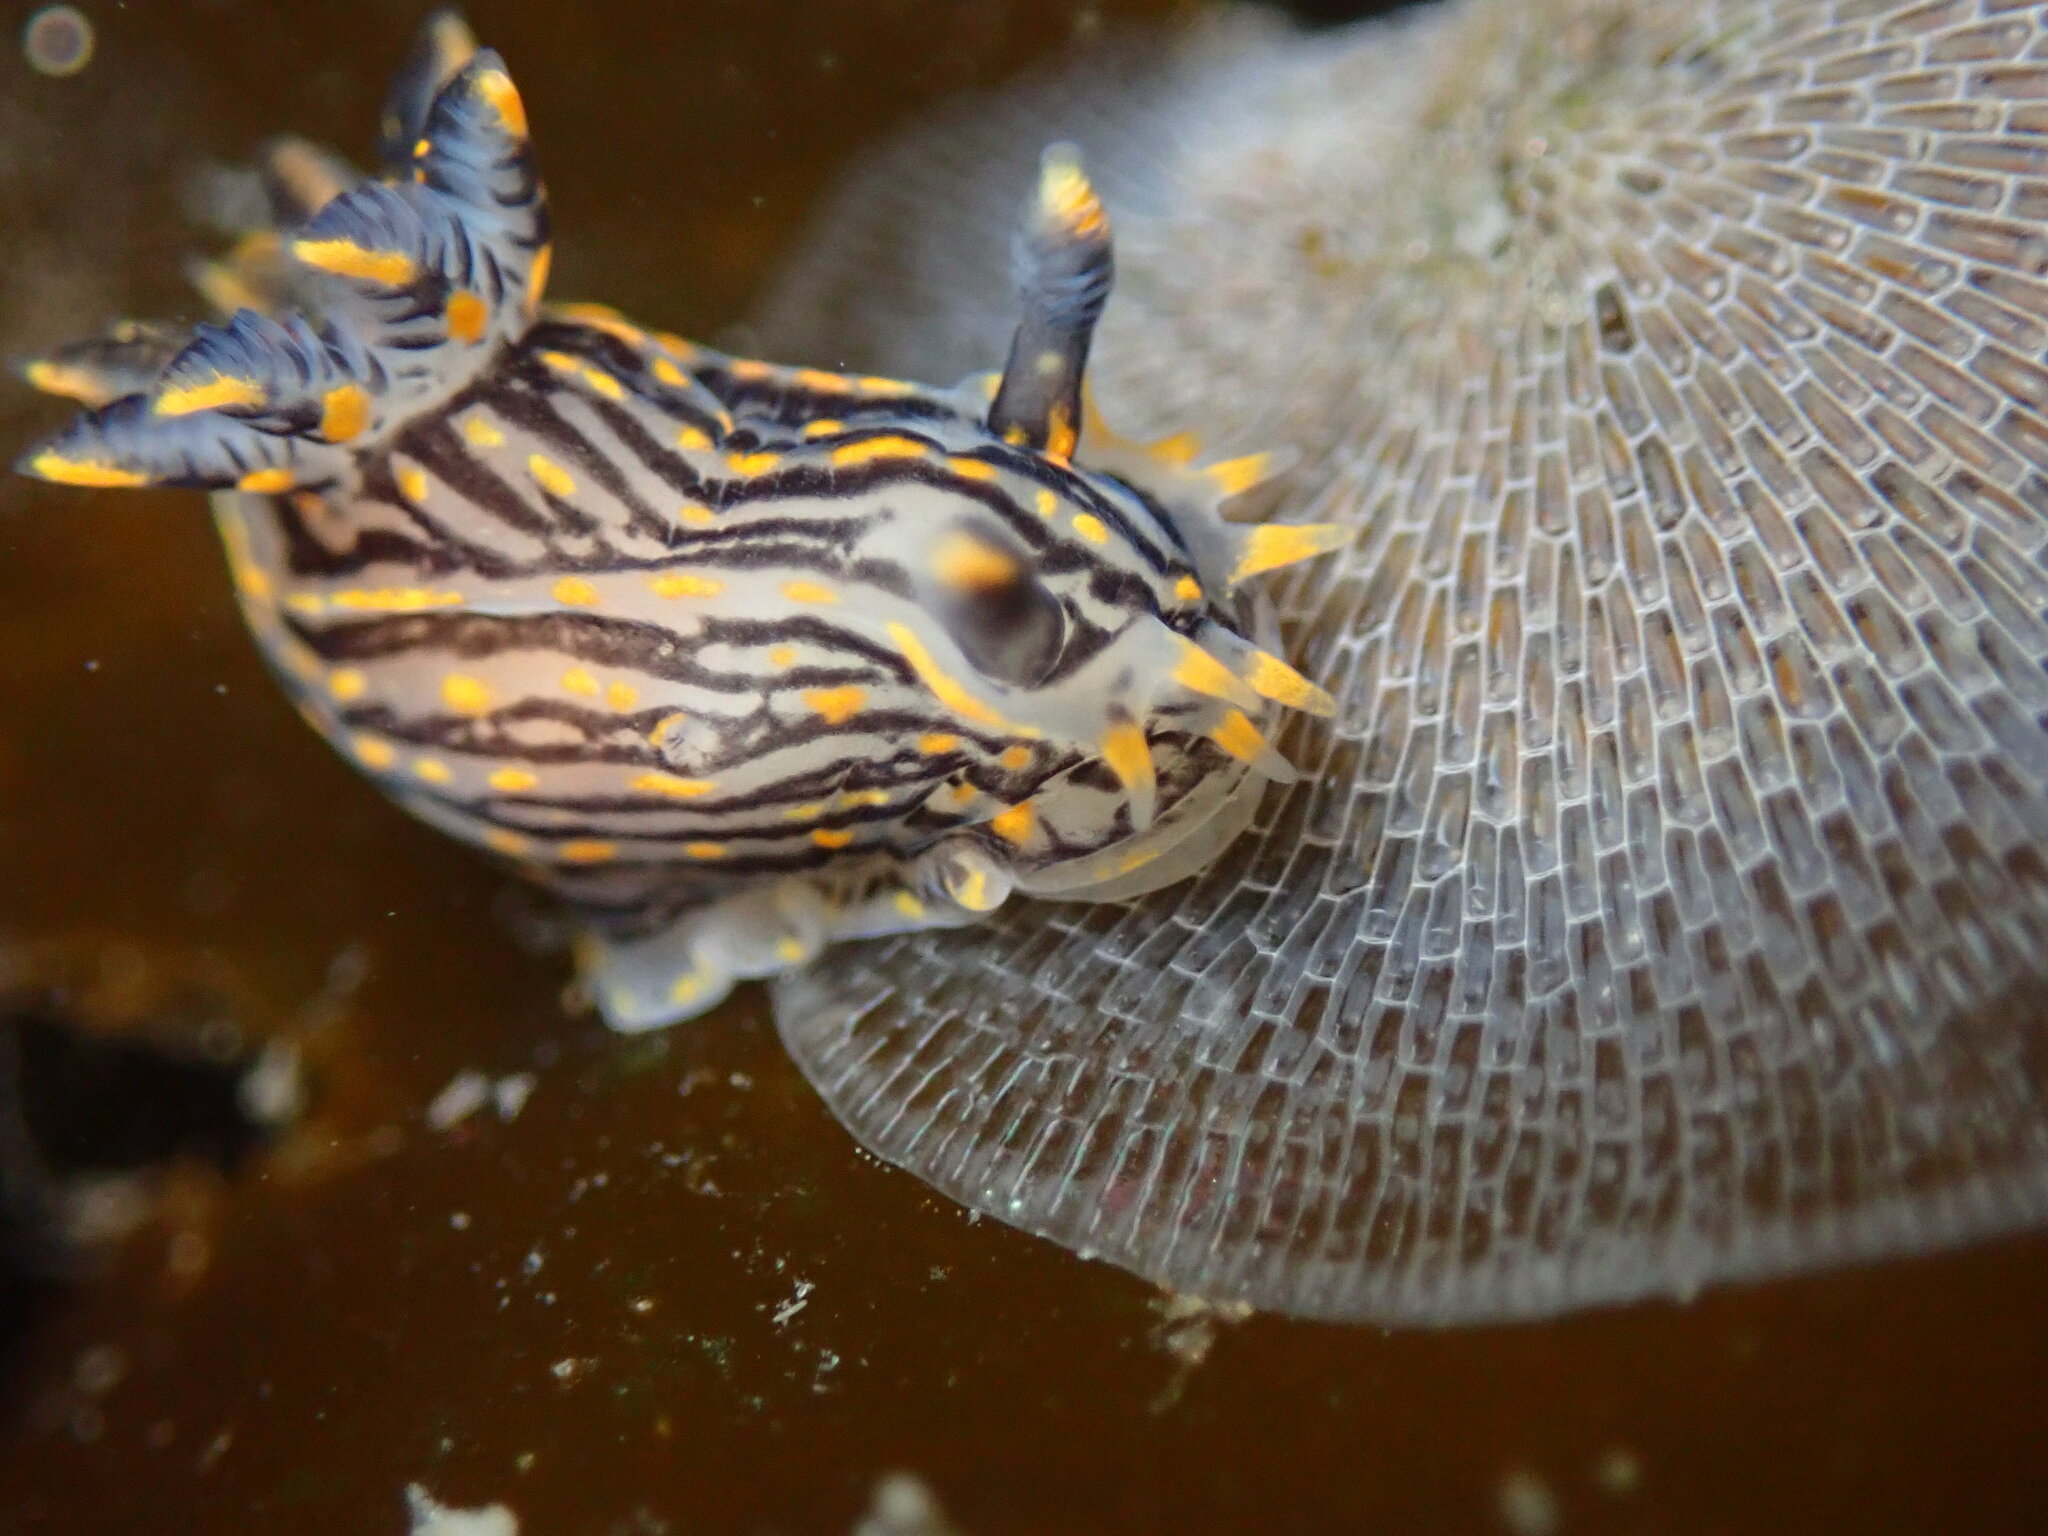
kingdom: Animalia
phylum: Mollusca
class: Gastropoda
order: Nudibranchia
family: Polyceridae
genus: Polycera
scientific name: Polycera atra
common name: Orange-spike polycera
